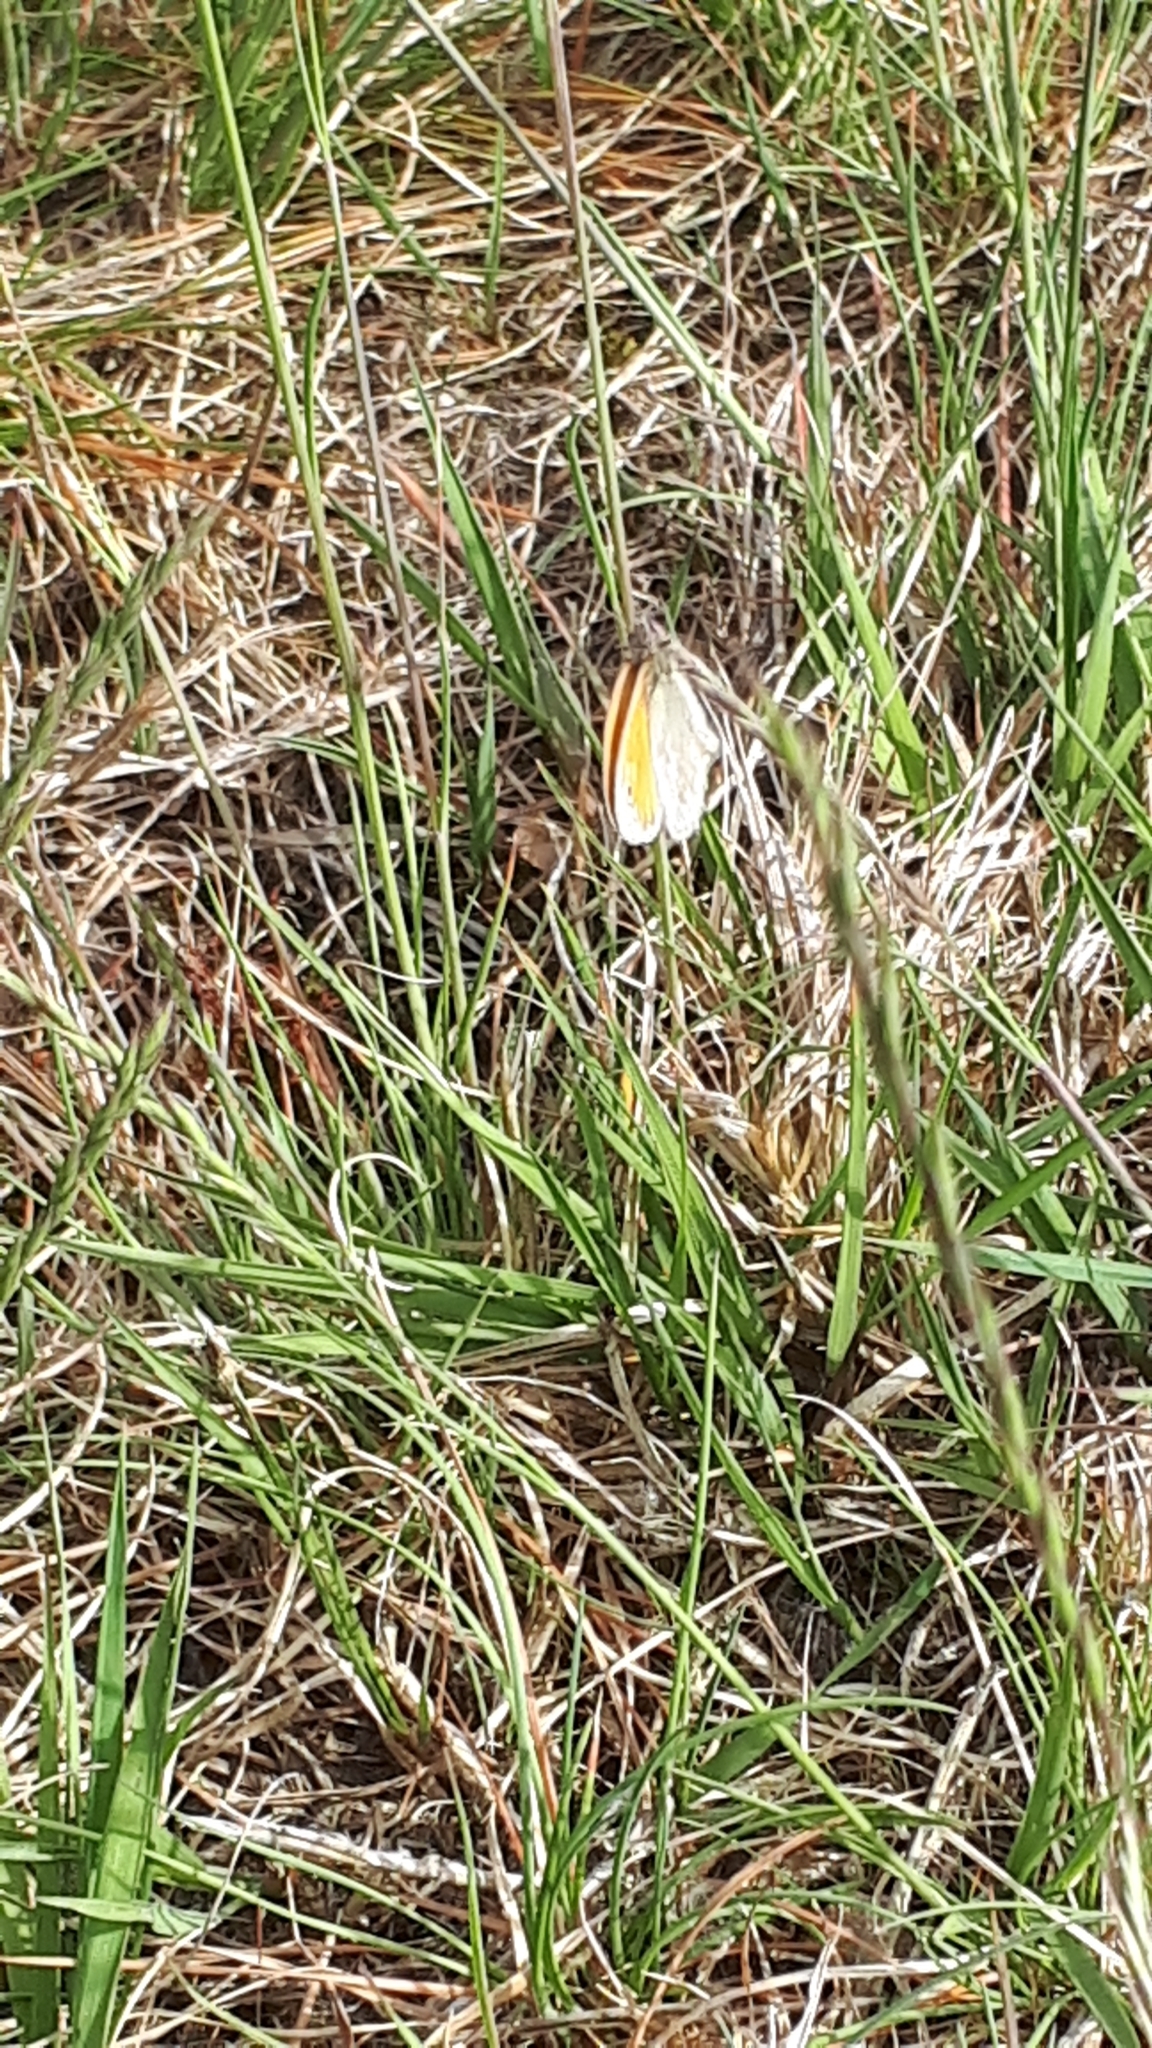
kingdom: Animalia
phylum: Arthropoda
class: Insecta
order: Lepidoptera
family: Nymphalidae
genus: Coenonympha
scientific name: Coenonympha pamphilus
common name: Small heath
